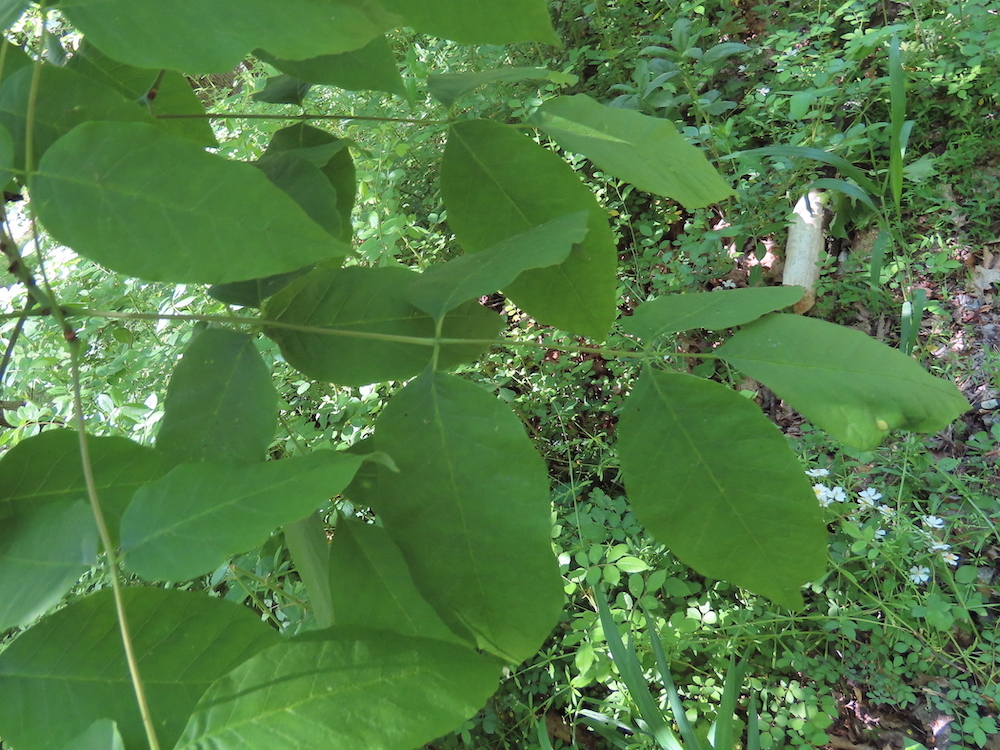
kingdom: Animalia
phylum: Arthropoda
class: Insecta
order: Diptera
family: Cecidomyiidae
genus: Dasineura
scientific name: Dasineura pellex
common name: Ash bullet gall midge
